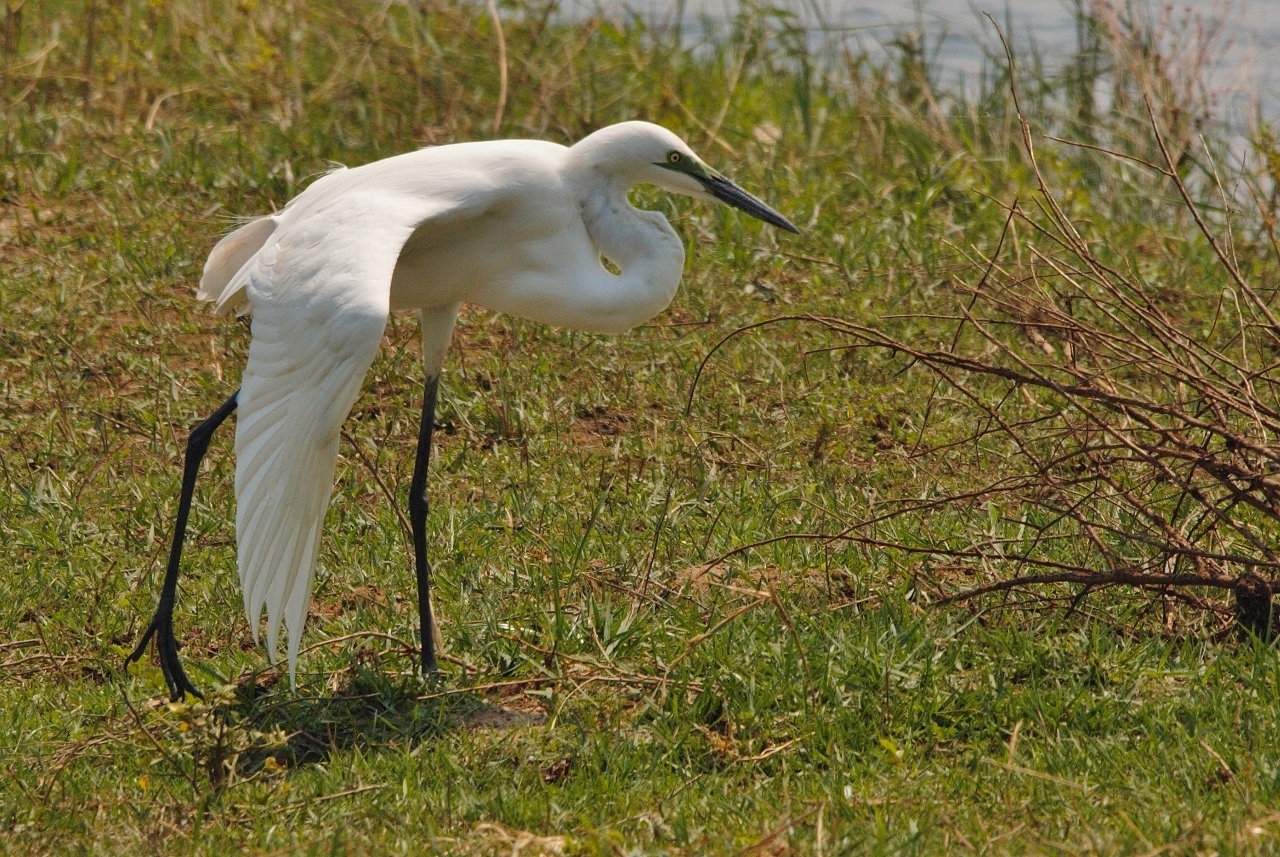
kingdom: Animalia
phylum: Chordata
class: Aves
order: Pelecaniformes
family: Ardeidae
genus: Ardea
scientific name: Ardea alba
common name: Great egret
